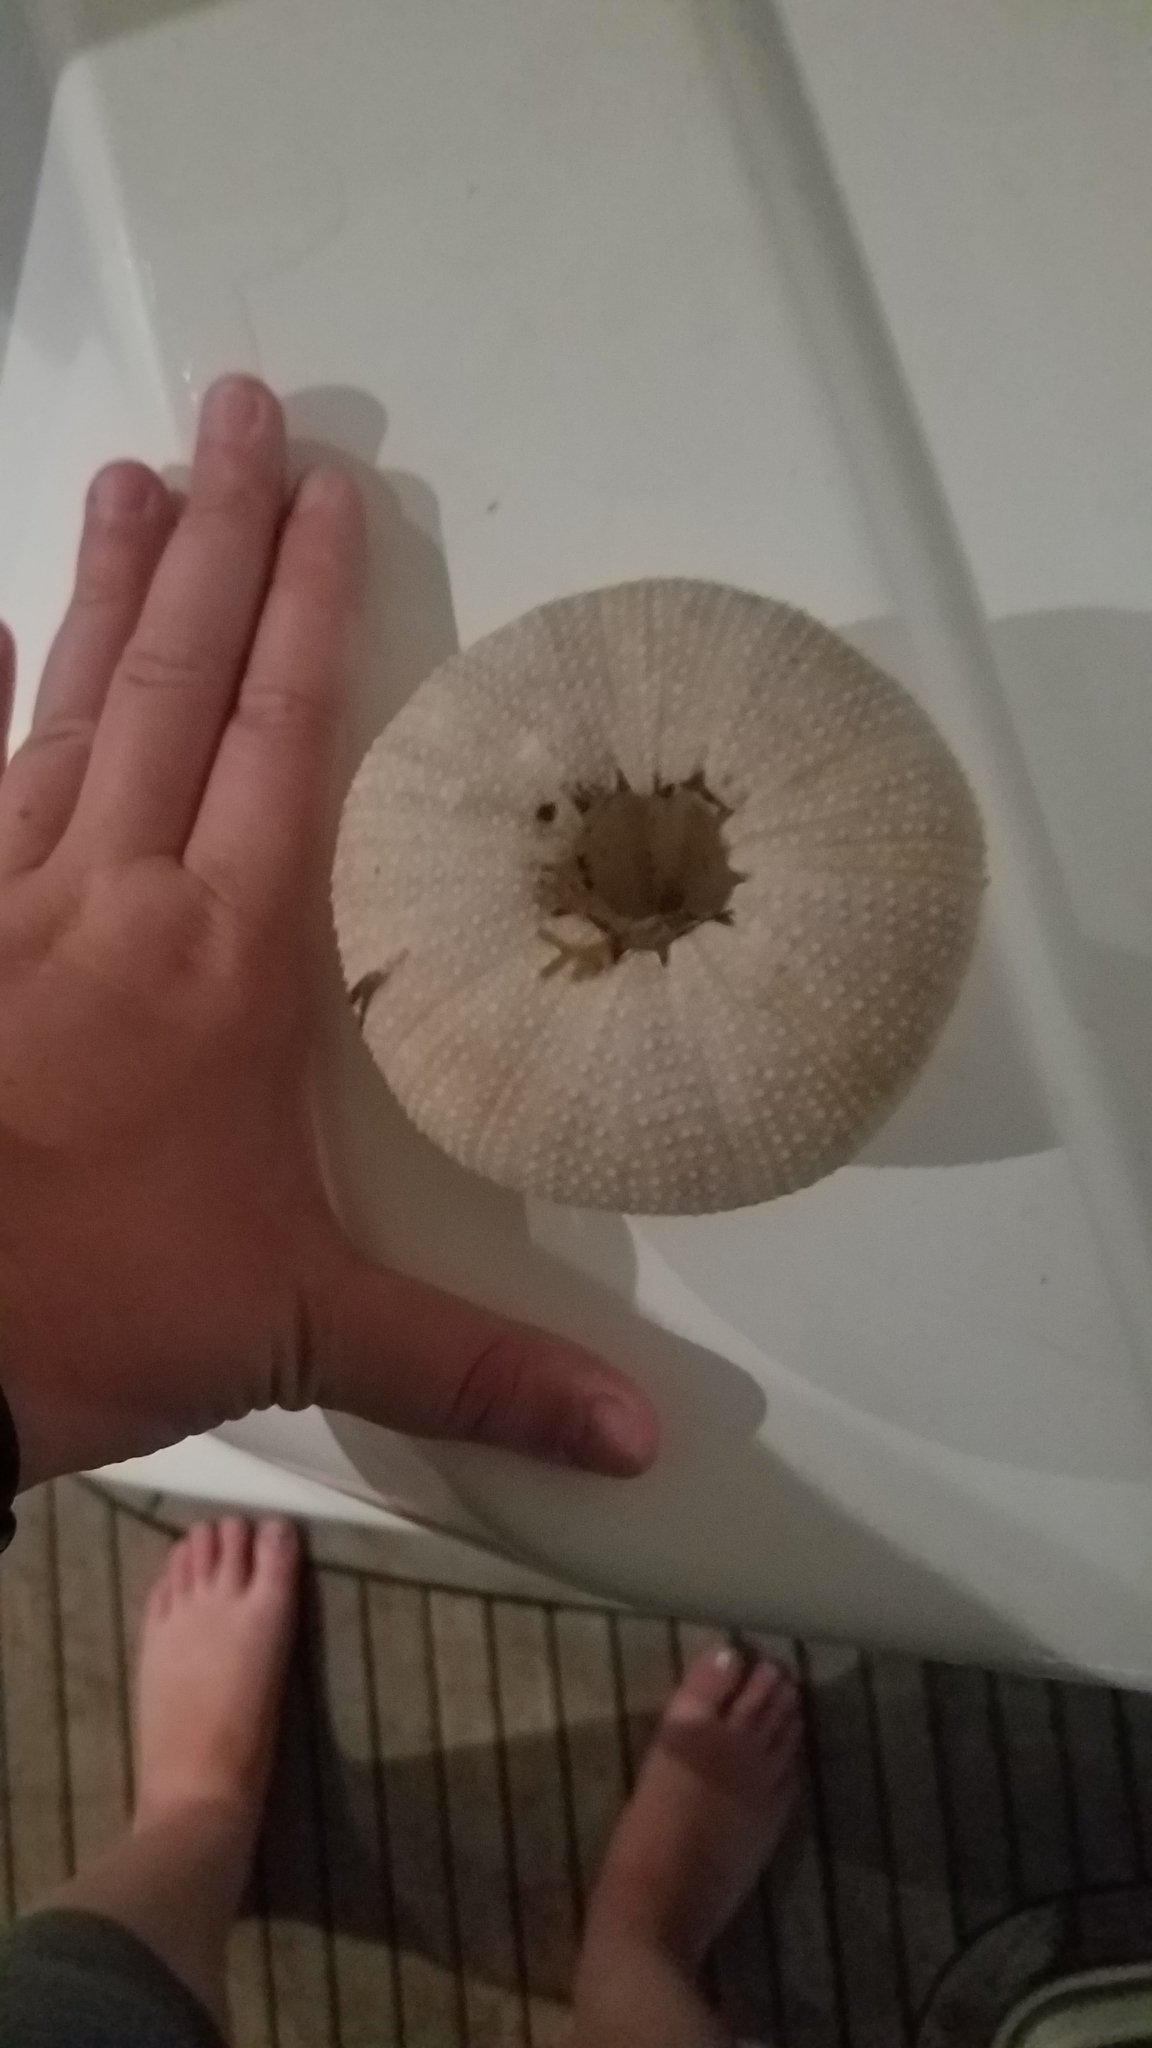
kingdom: Animalia
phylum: Echinodermata
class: Echinoidea
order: Camarodonta
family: Toxopneustidae
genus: Tripneustes
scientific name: Tripneustes ventricosus
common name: West indian sea egg
